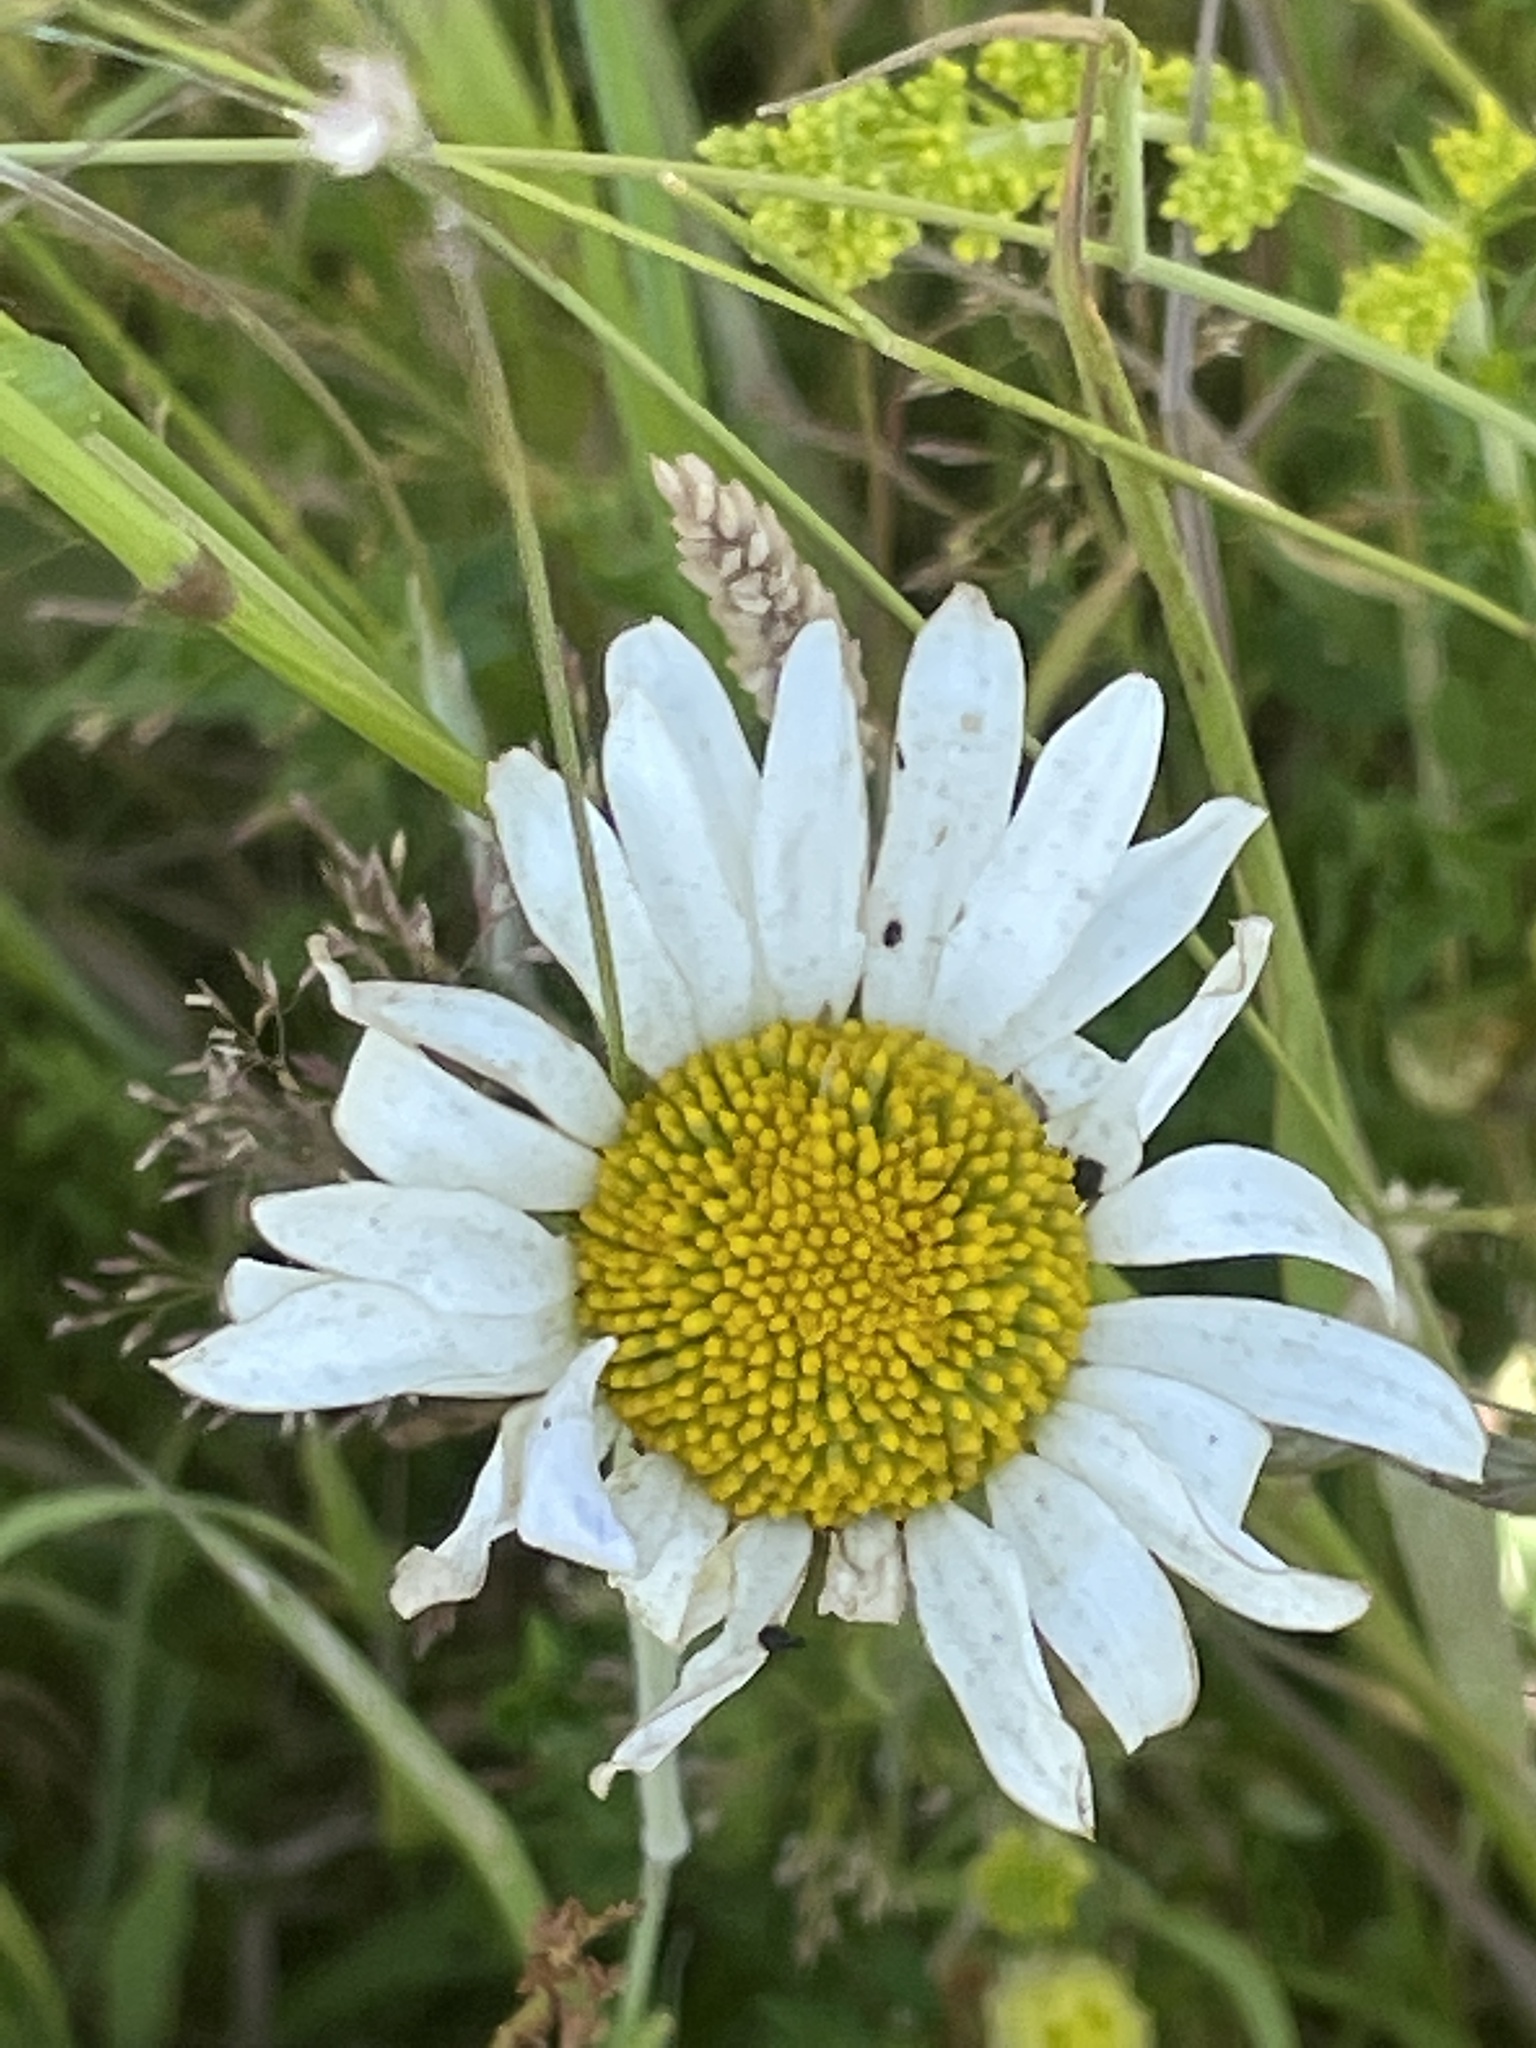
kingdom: Plantae
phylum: Tracheophyta
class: Magnoliopsida
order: Asterales
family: Asteraceae
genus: Leucanthemum
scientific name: Leucanthemum vulgare
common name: Oxeye daisy
